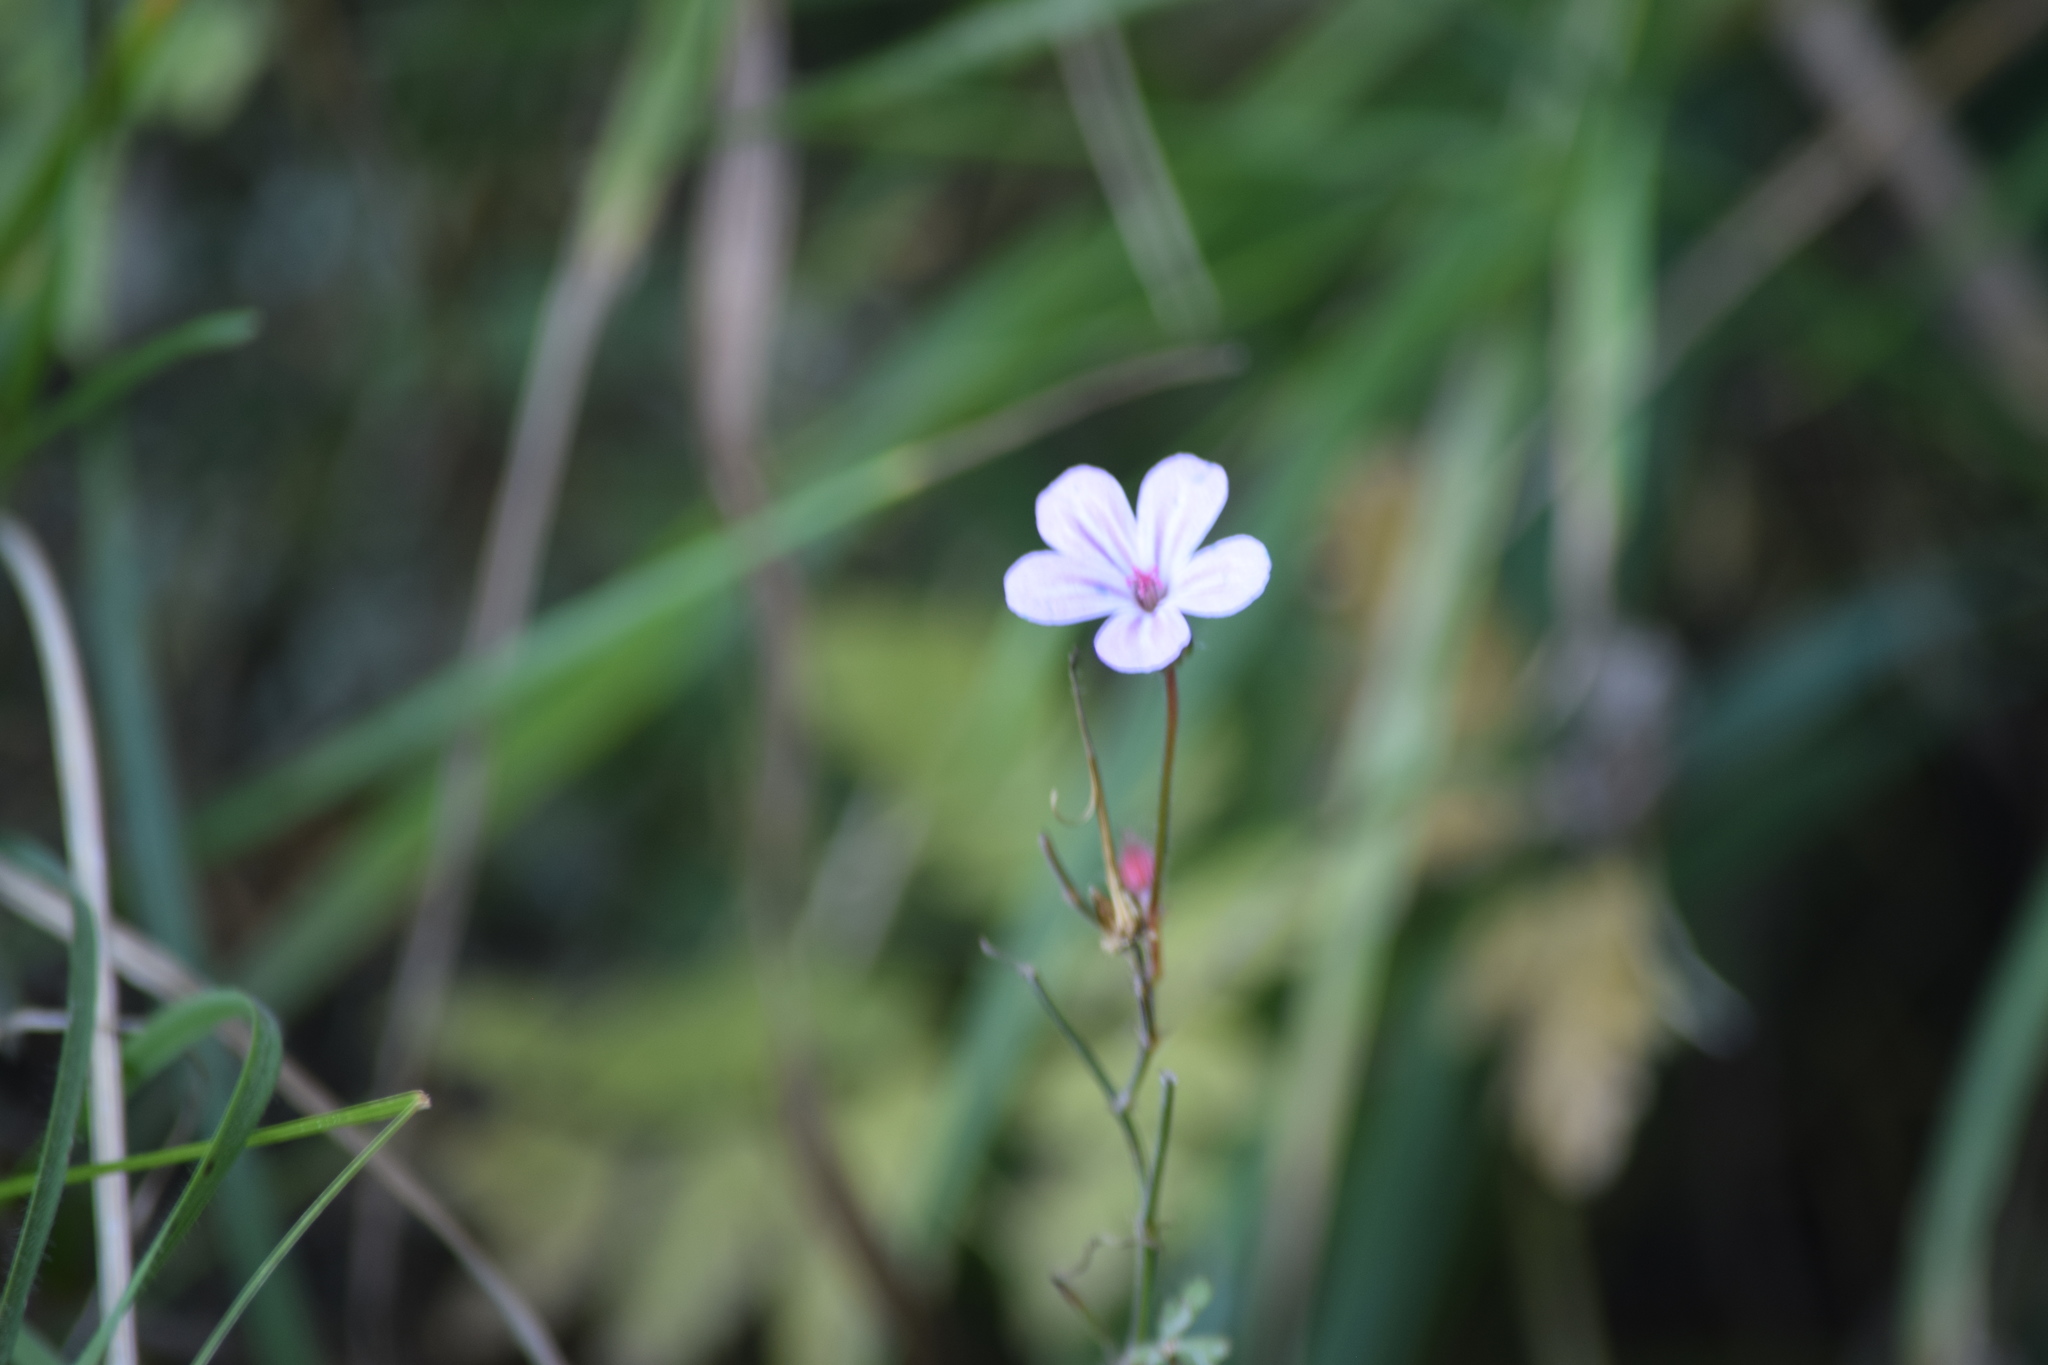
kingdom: Plantae
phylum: Tracheophyta
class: Magnoliopsida
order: Geraniales
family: Geraniaceae
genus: Geranium
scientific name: Geranium robertianum
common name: Herb-robert
